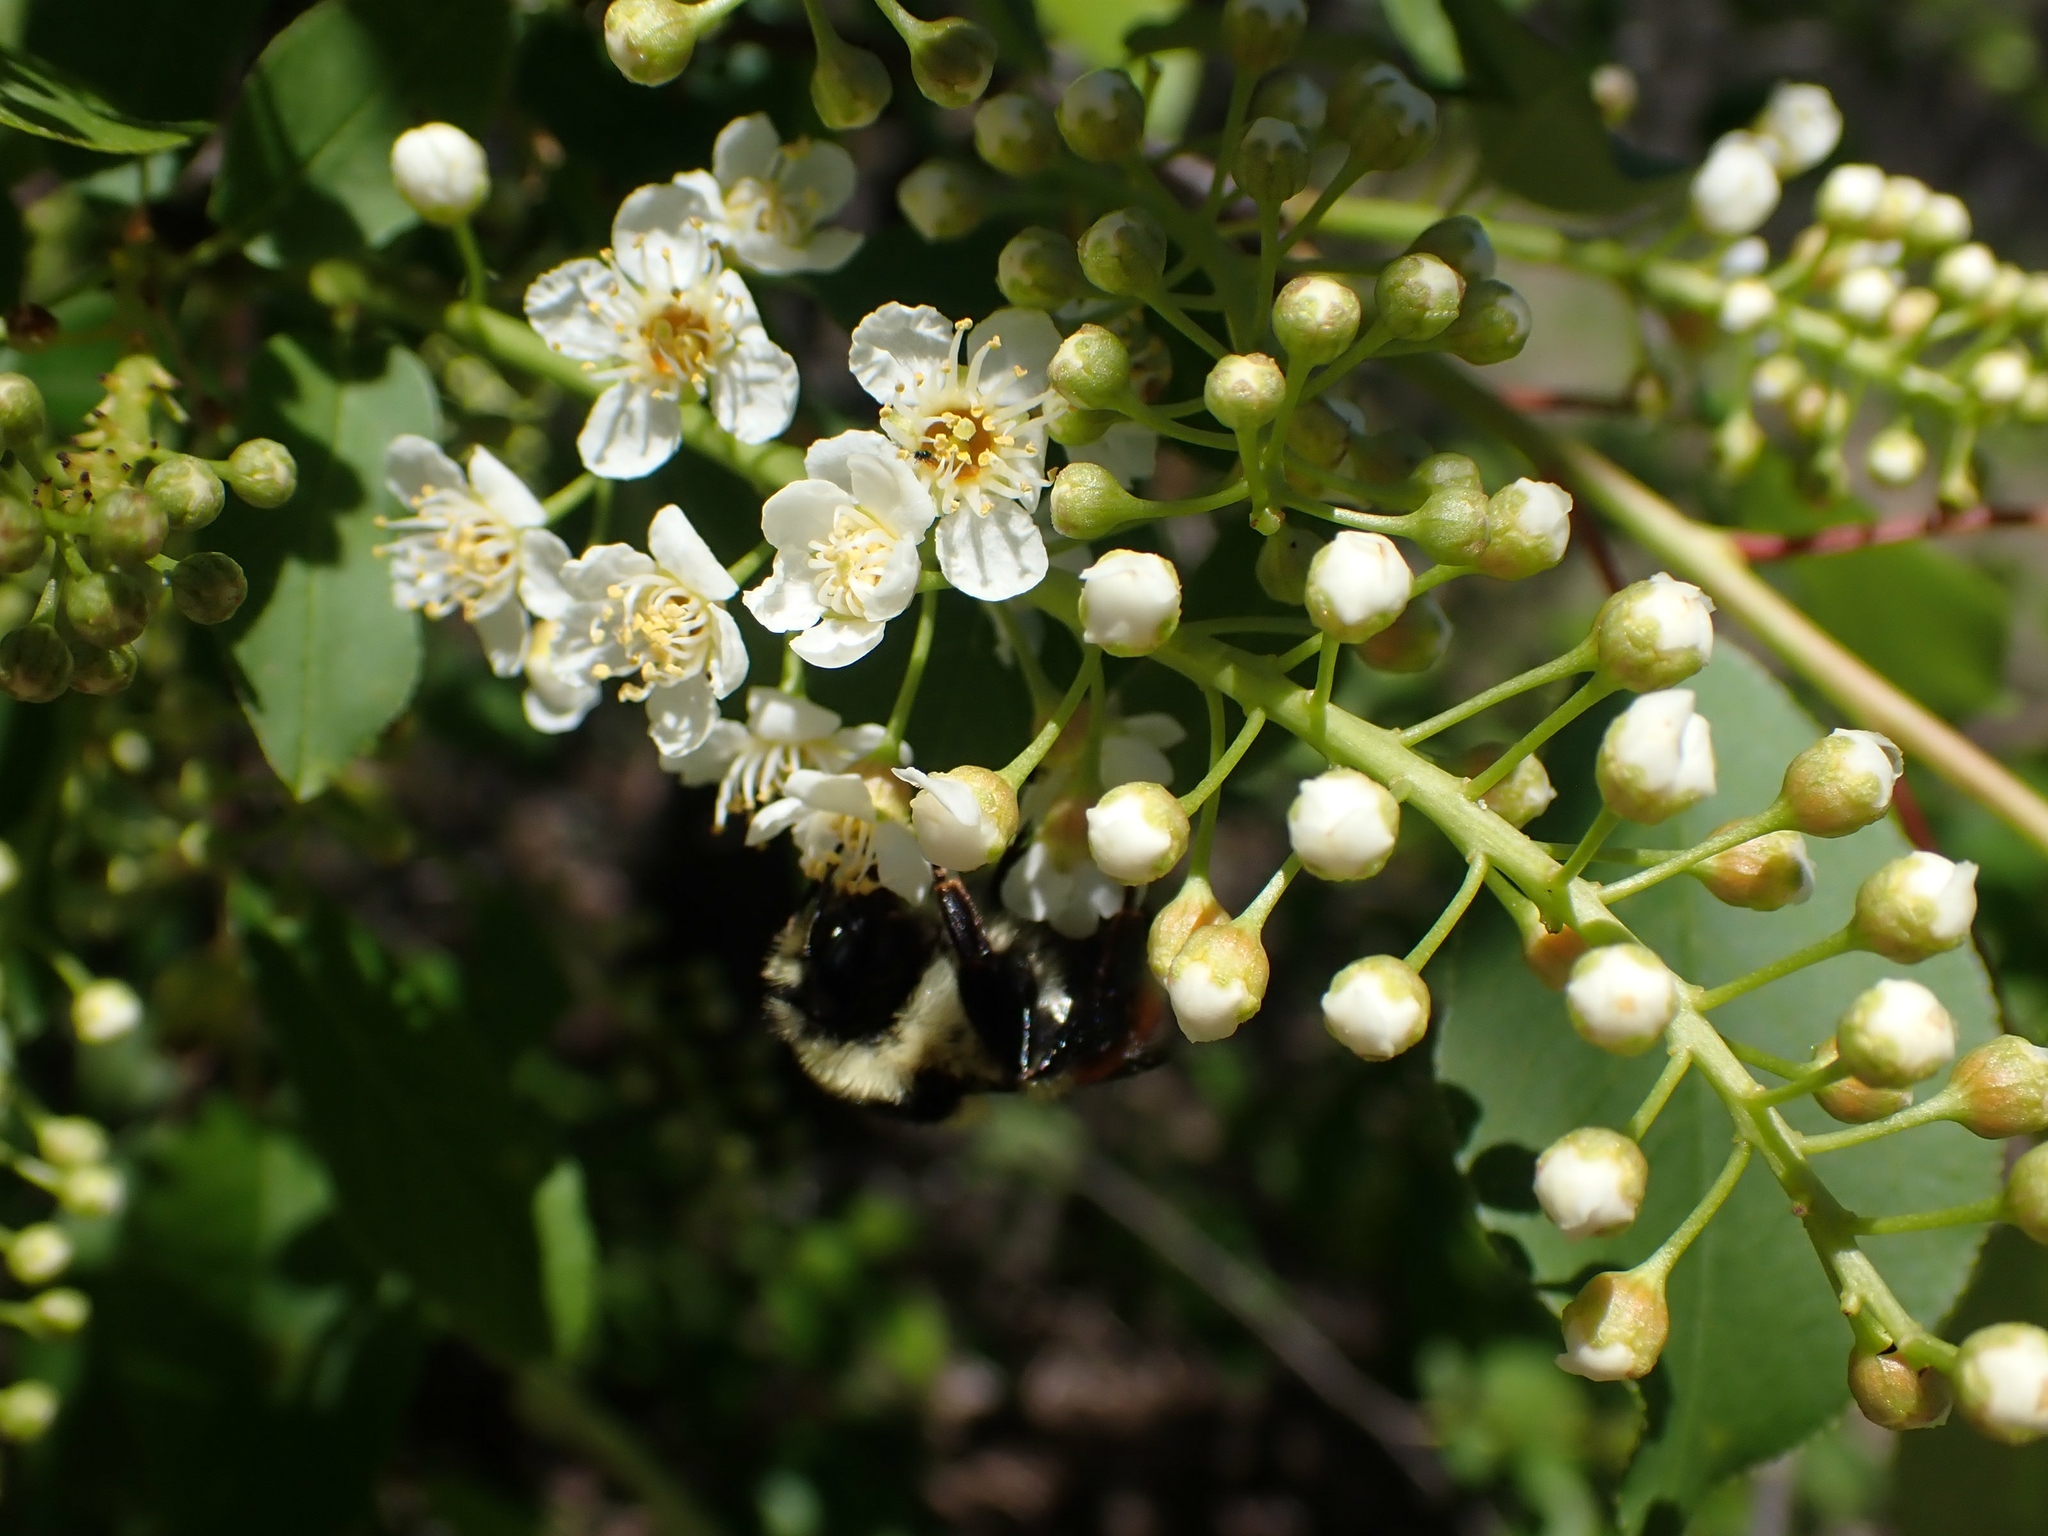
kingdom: Plantae
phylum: Tracheophyta
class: Magnoliopsida
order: Rosales
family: Rosaceae
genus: Prunus
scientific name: Prunus virginiana
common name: Chokecherry
